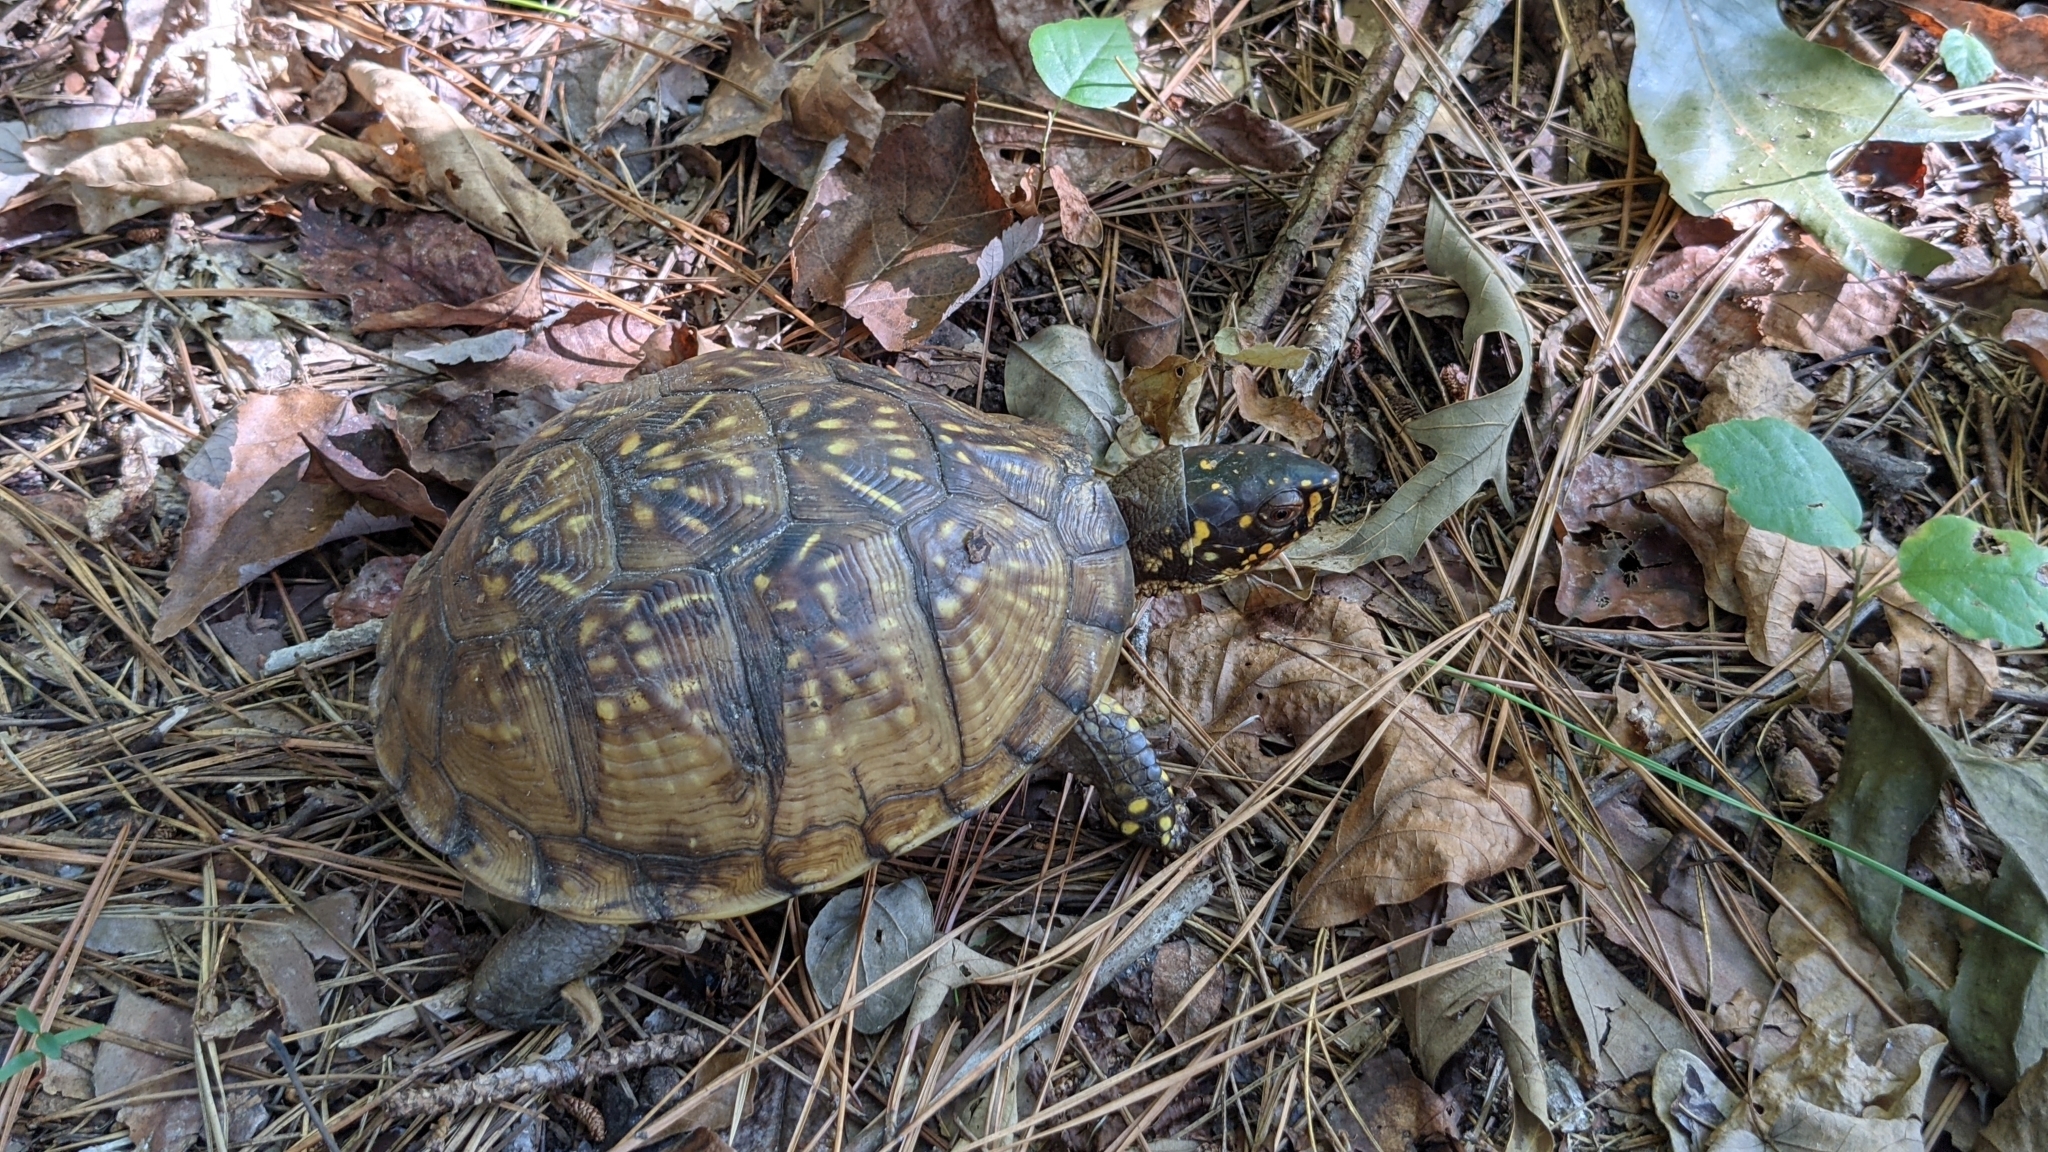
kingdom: Animalia
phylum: Chordata
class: Testudines
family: Emydidae
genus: Terrapene
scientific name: Terrapene carolina
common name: Common box turtle
